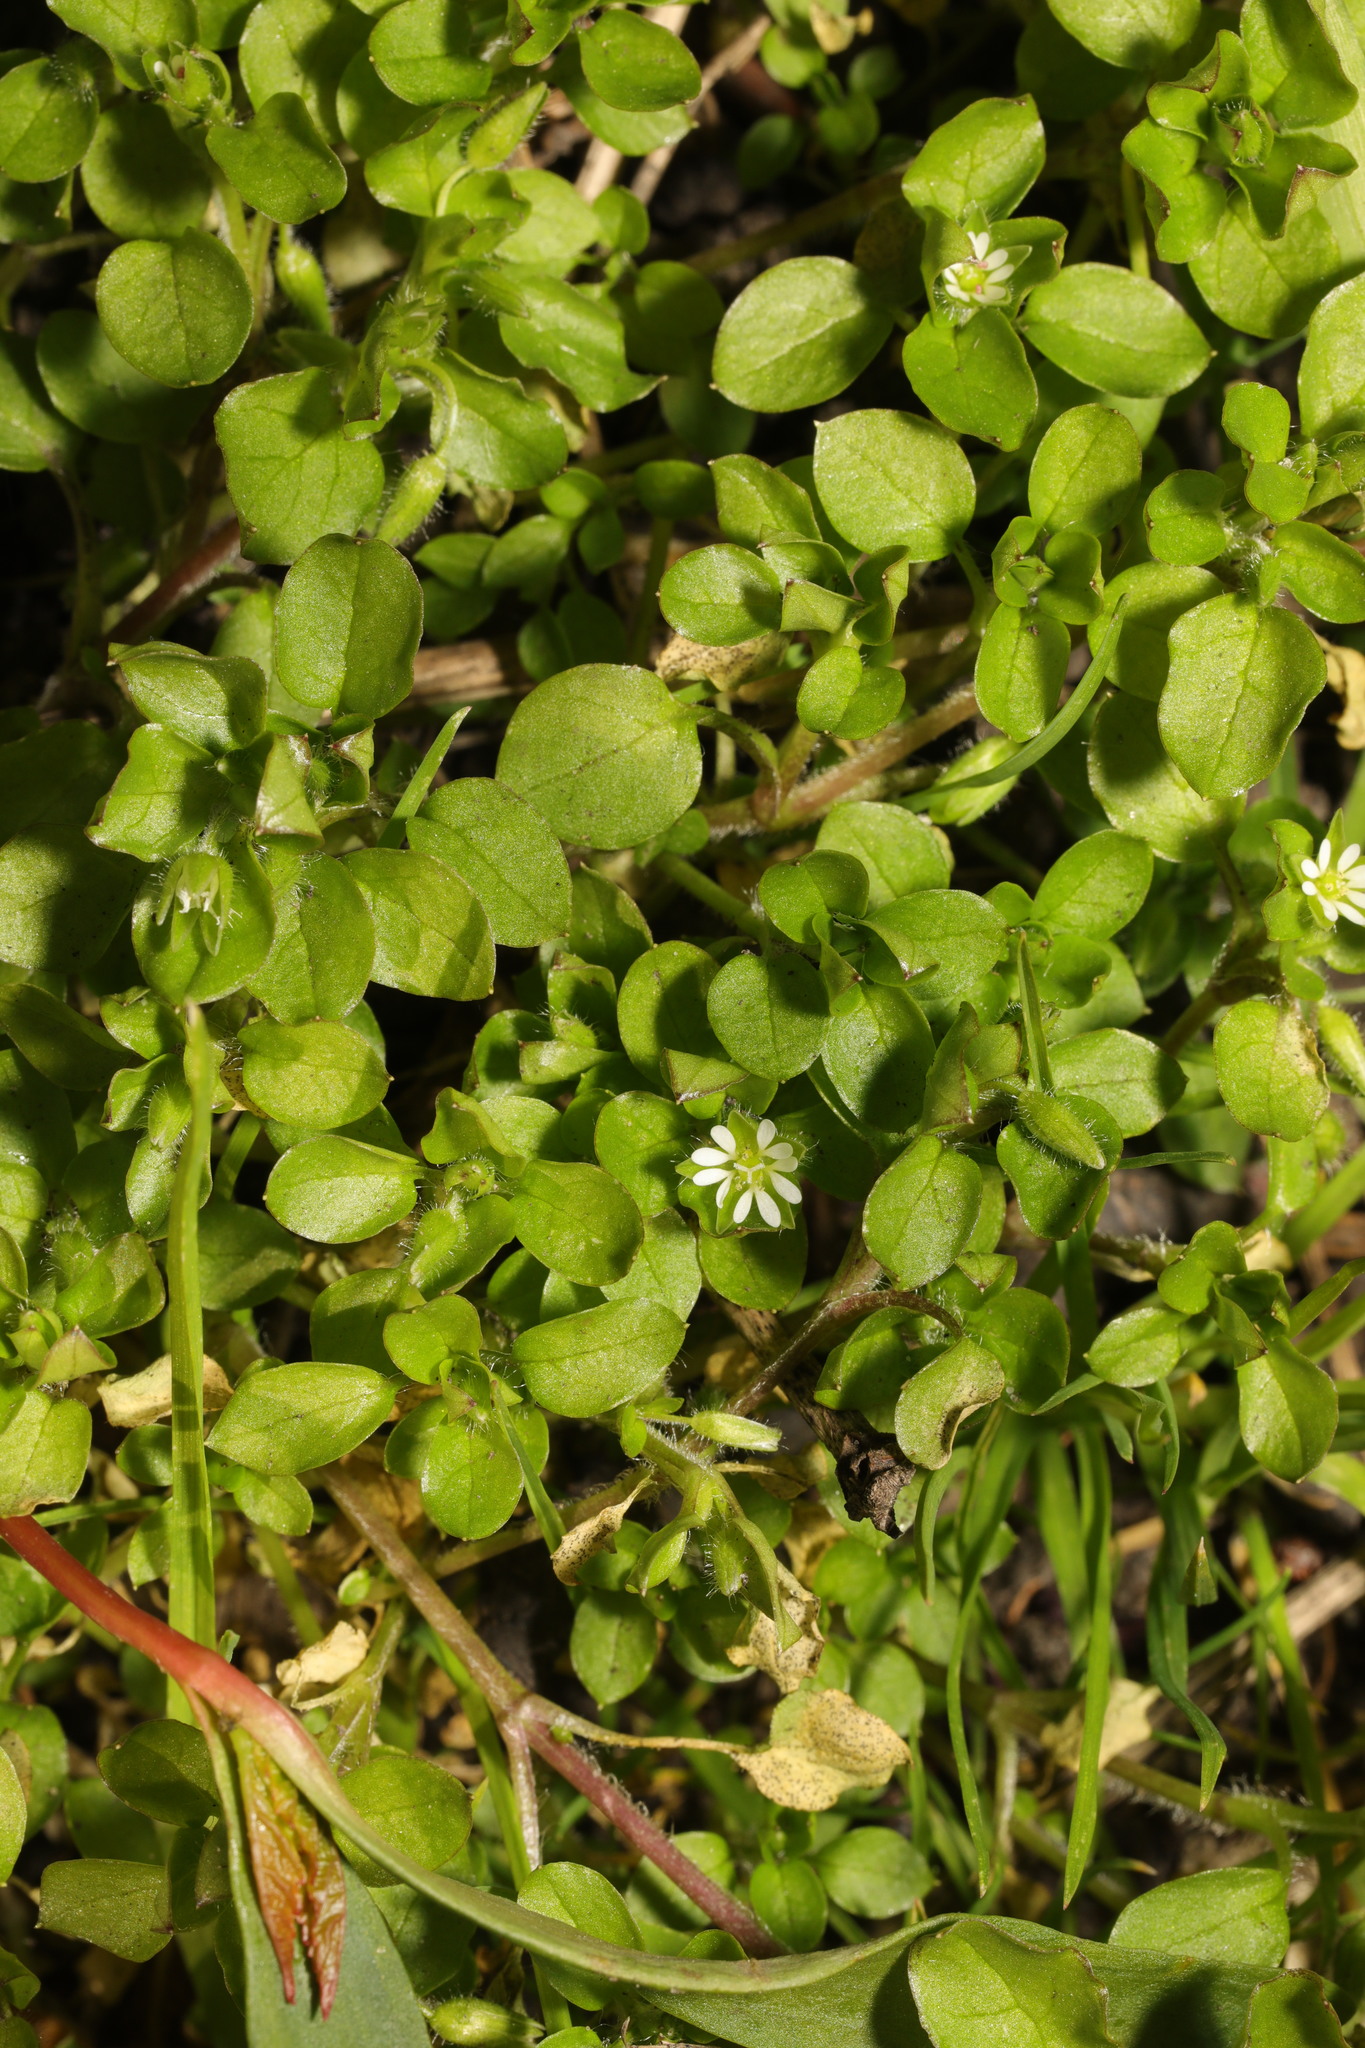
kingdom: Plantae
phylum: Tracheophyta
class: Magnoliopsida
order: Caryophyllales
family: Caryophyllaceae
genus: Stellaria
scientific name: Stellaria media
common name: Common chickweed
